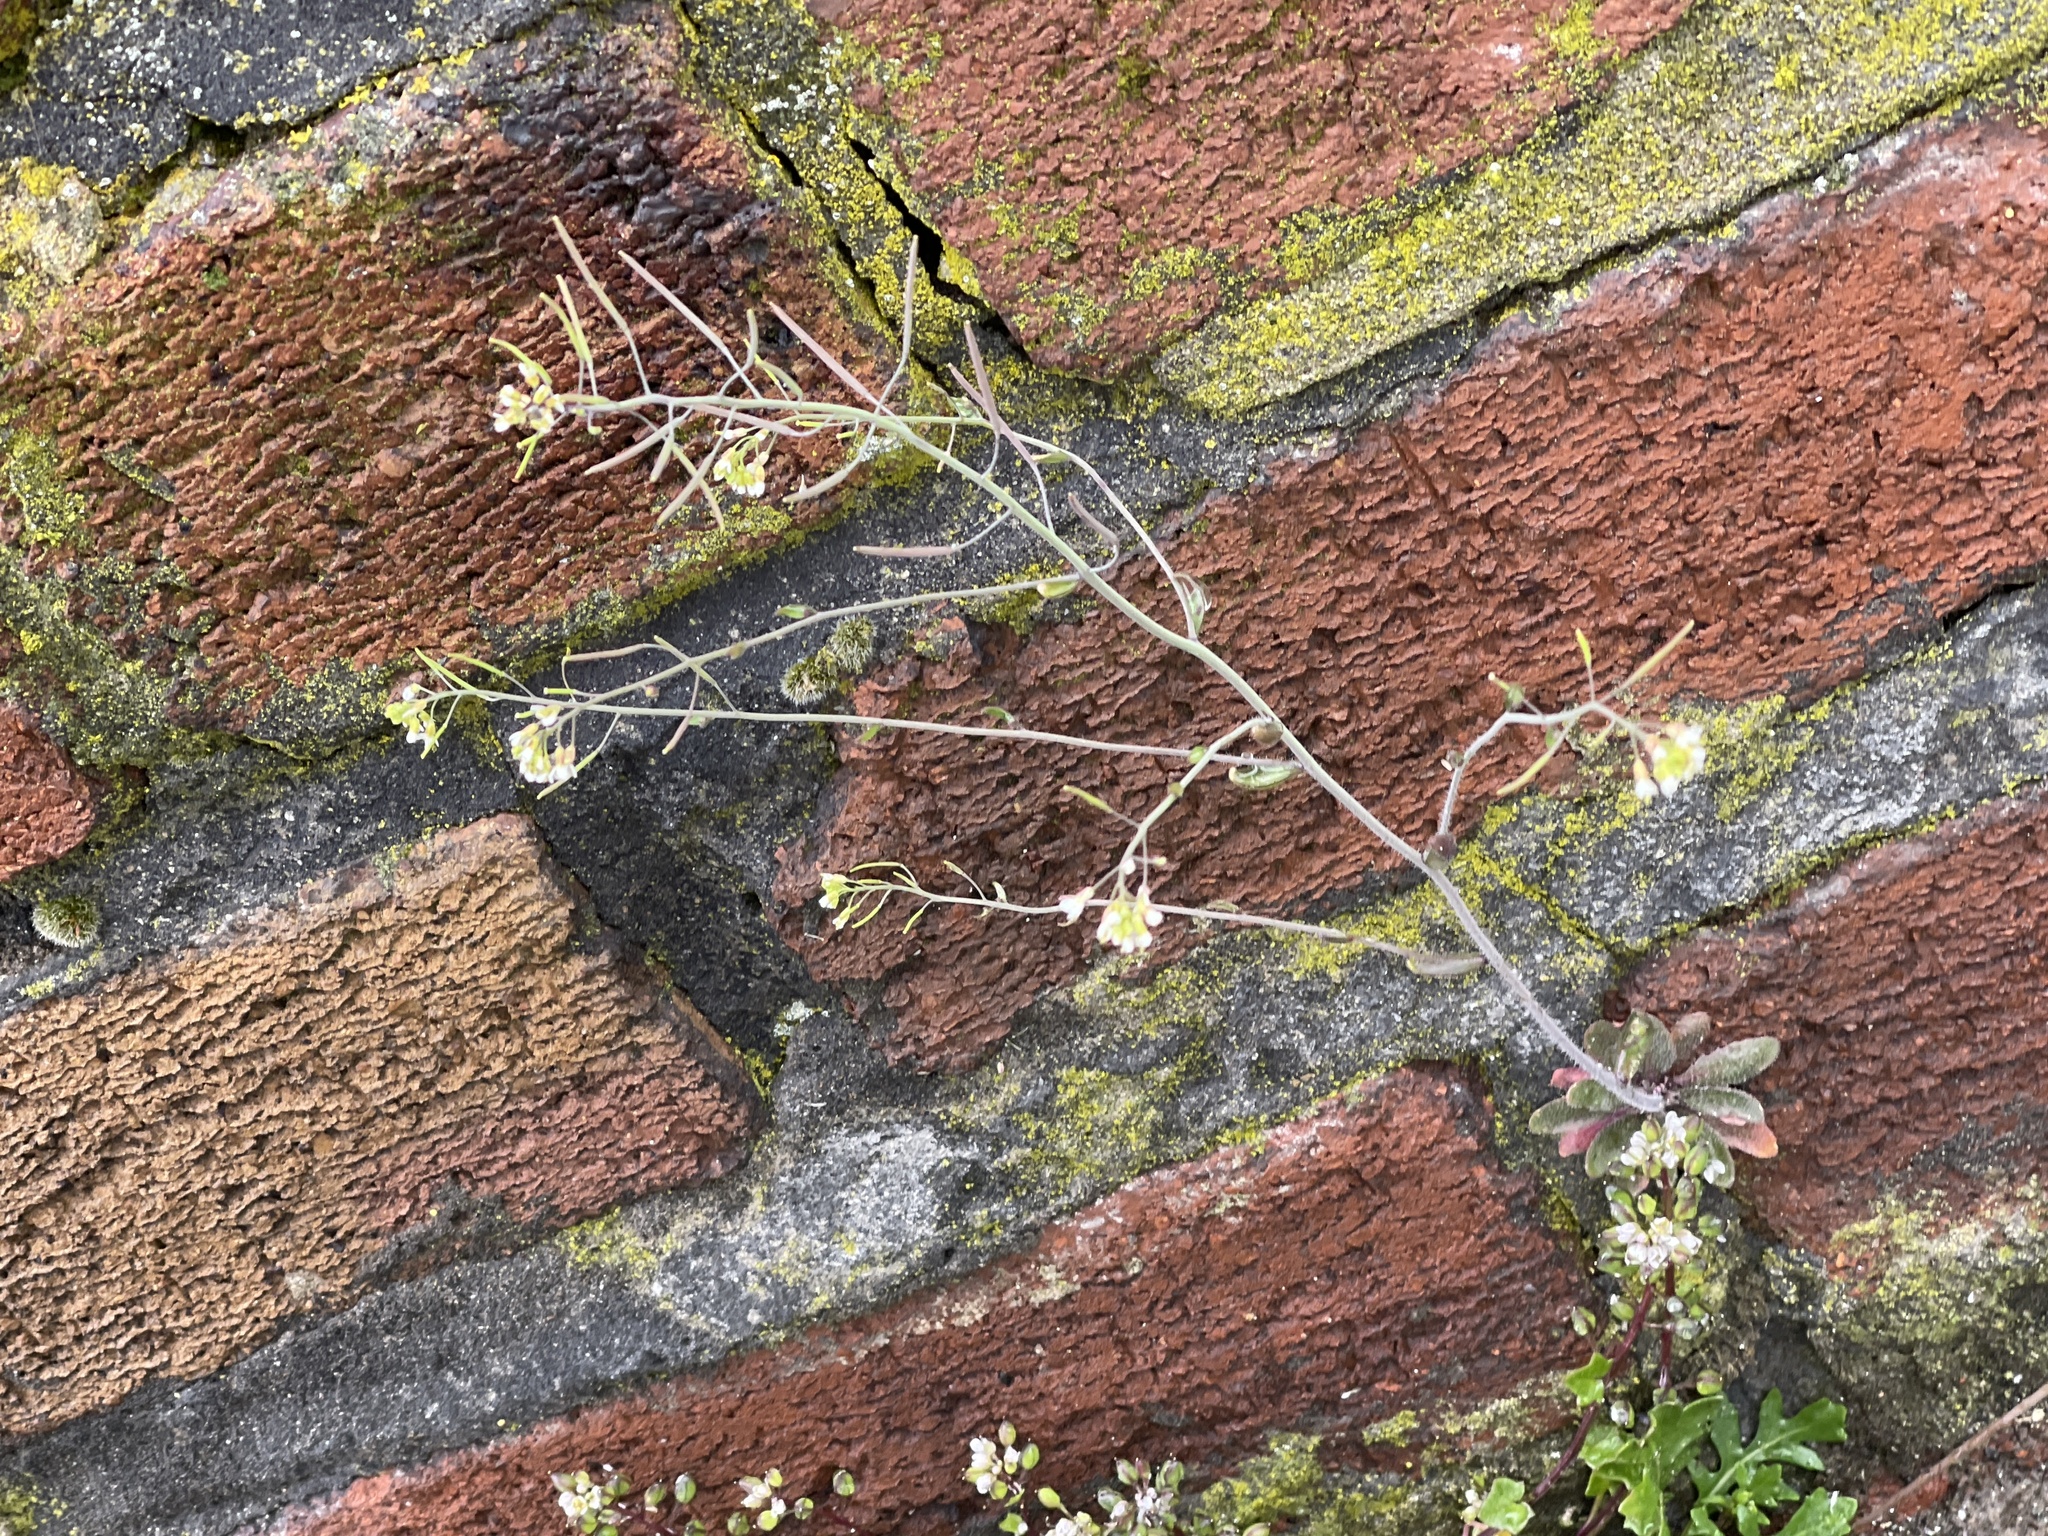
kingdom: Plantae
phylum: Tracheophyta
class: Magnoliopsida
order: Brassicales
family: Brassicaceae
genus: Arabidopsis
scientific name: Arabidopsis thaliana
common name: Thale cress
